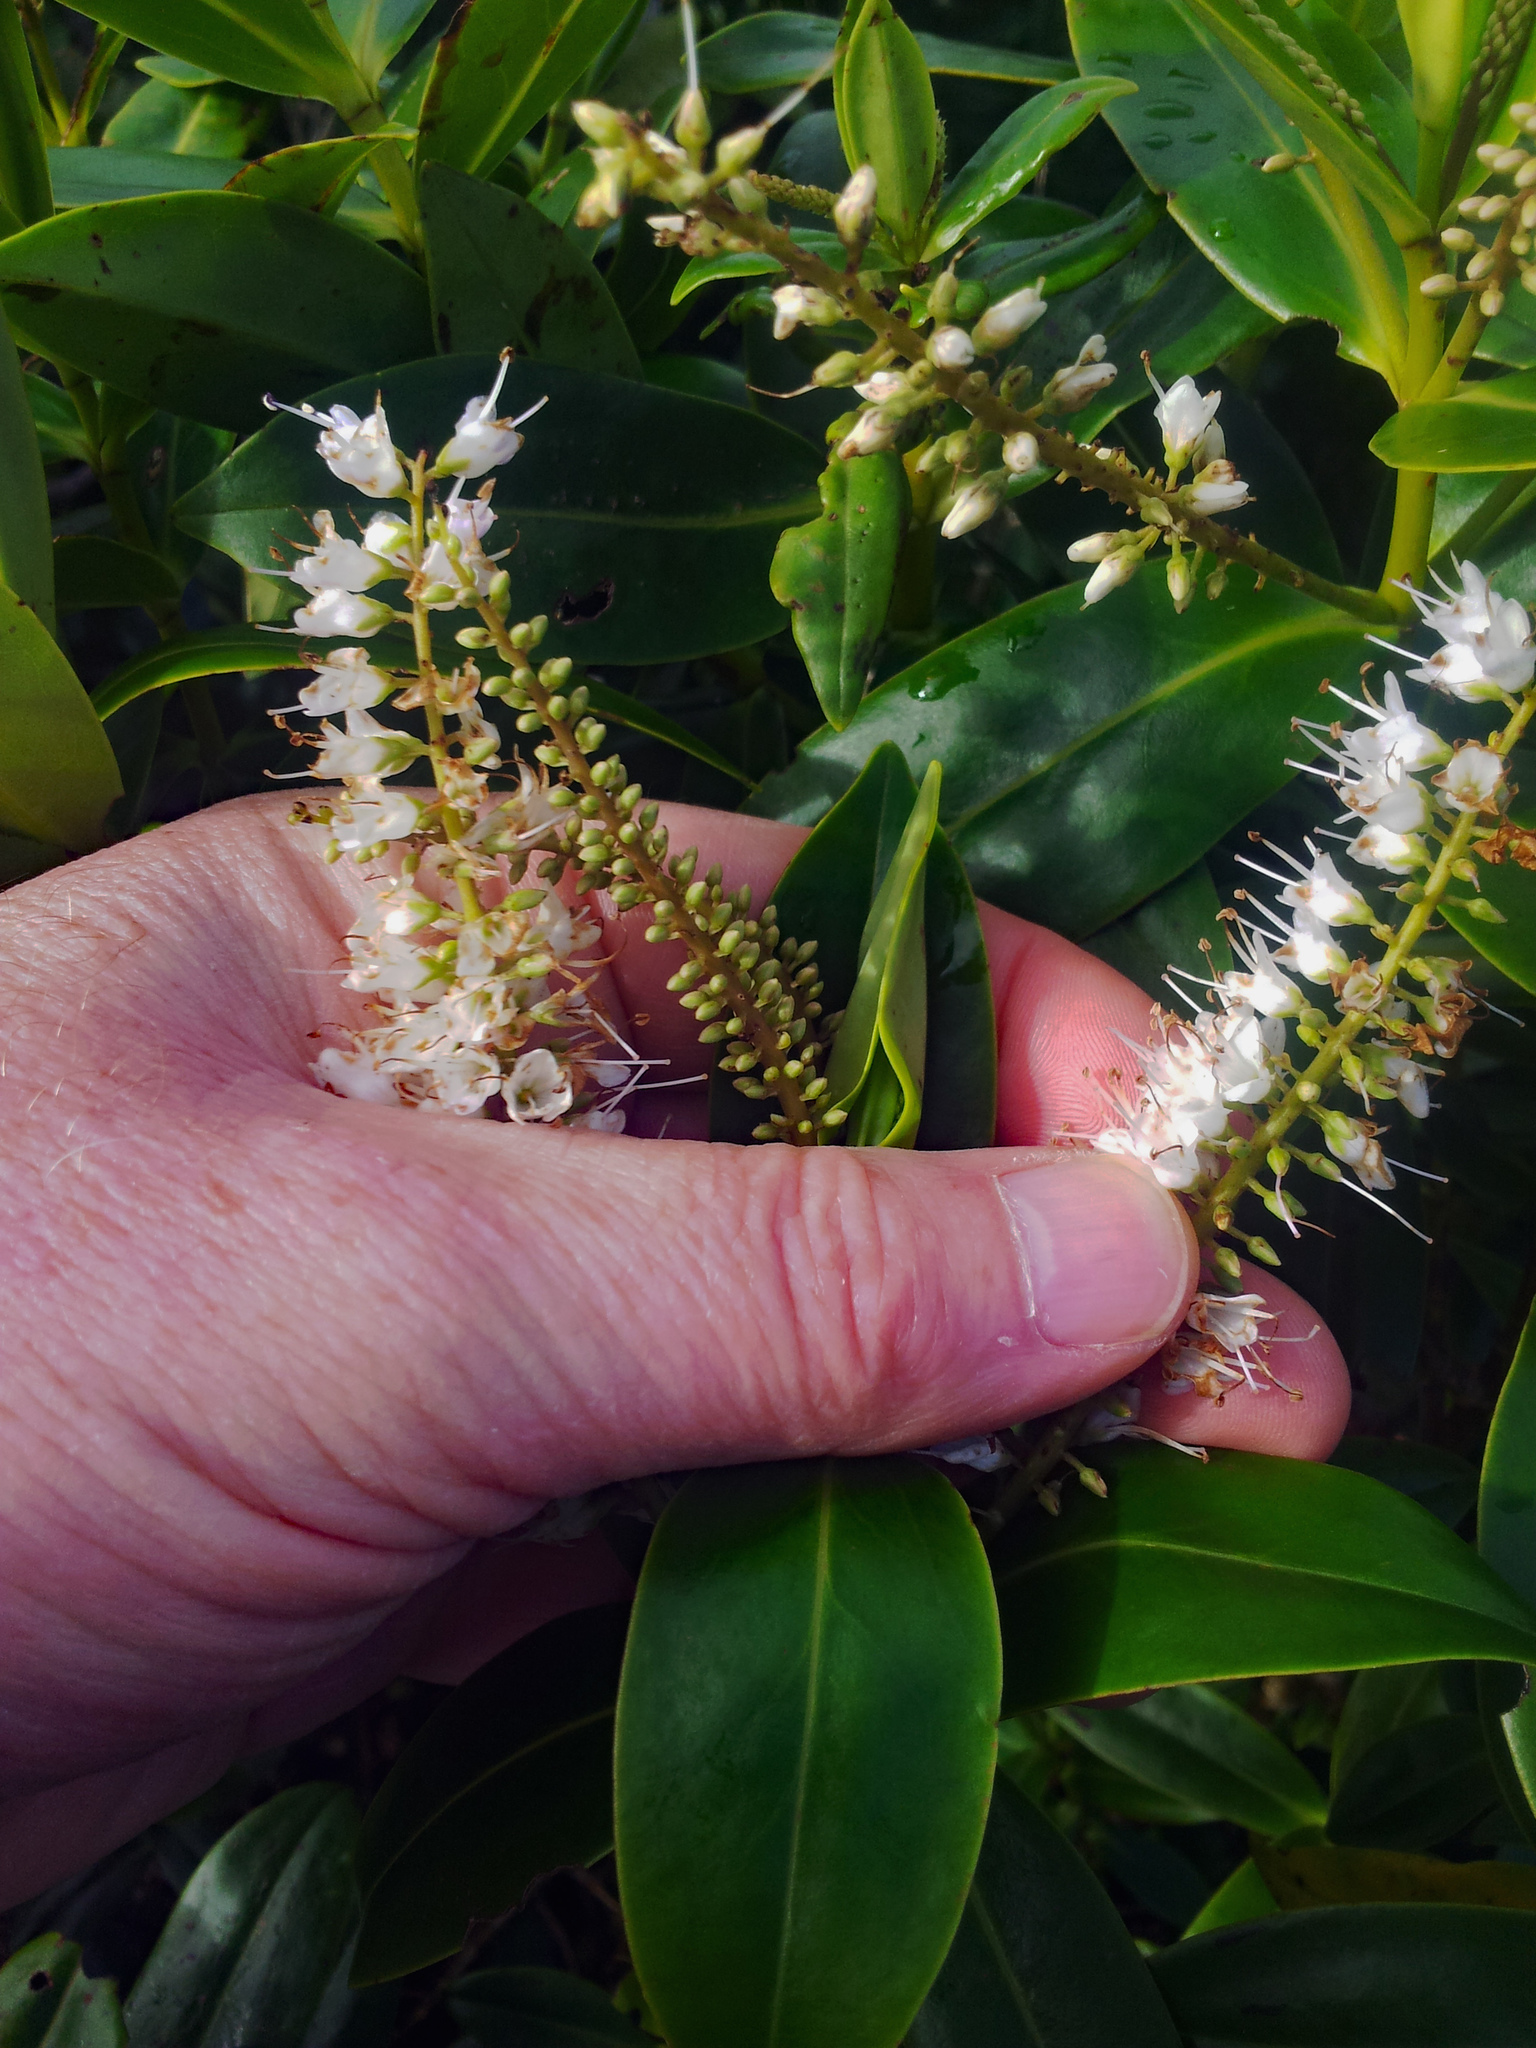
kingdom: Plantae
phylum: Tracheophyta
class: Magnoliopsida
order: Lamiales
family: Plantaginaceae
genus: Veronica
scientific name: Veronica macrocarpa
